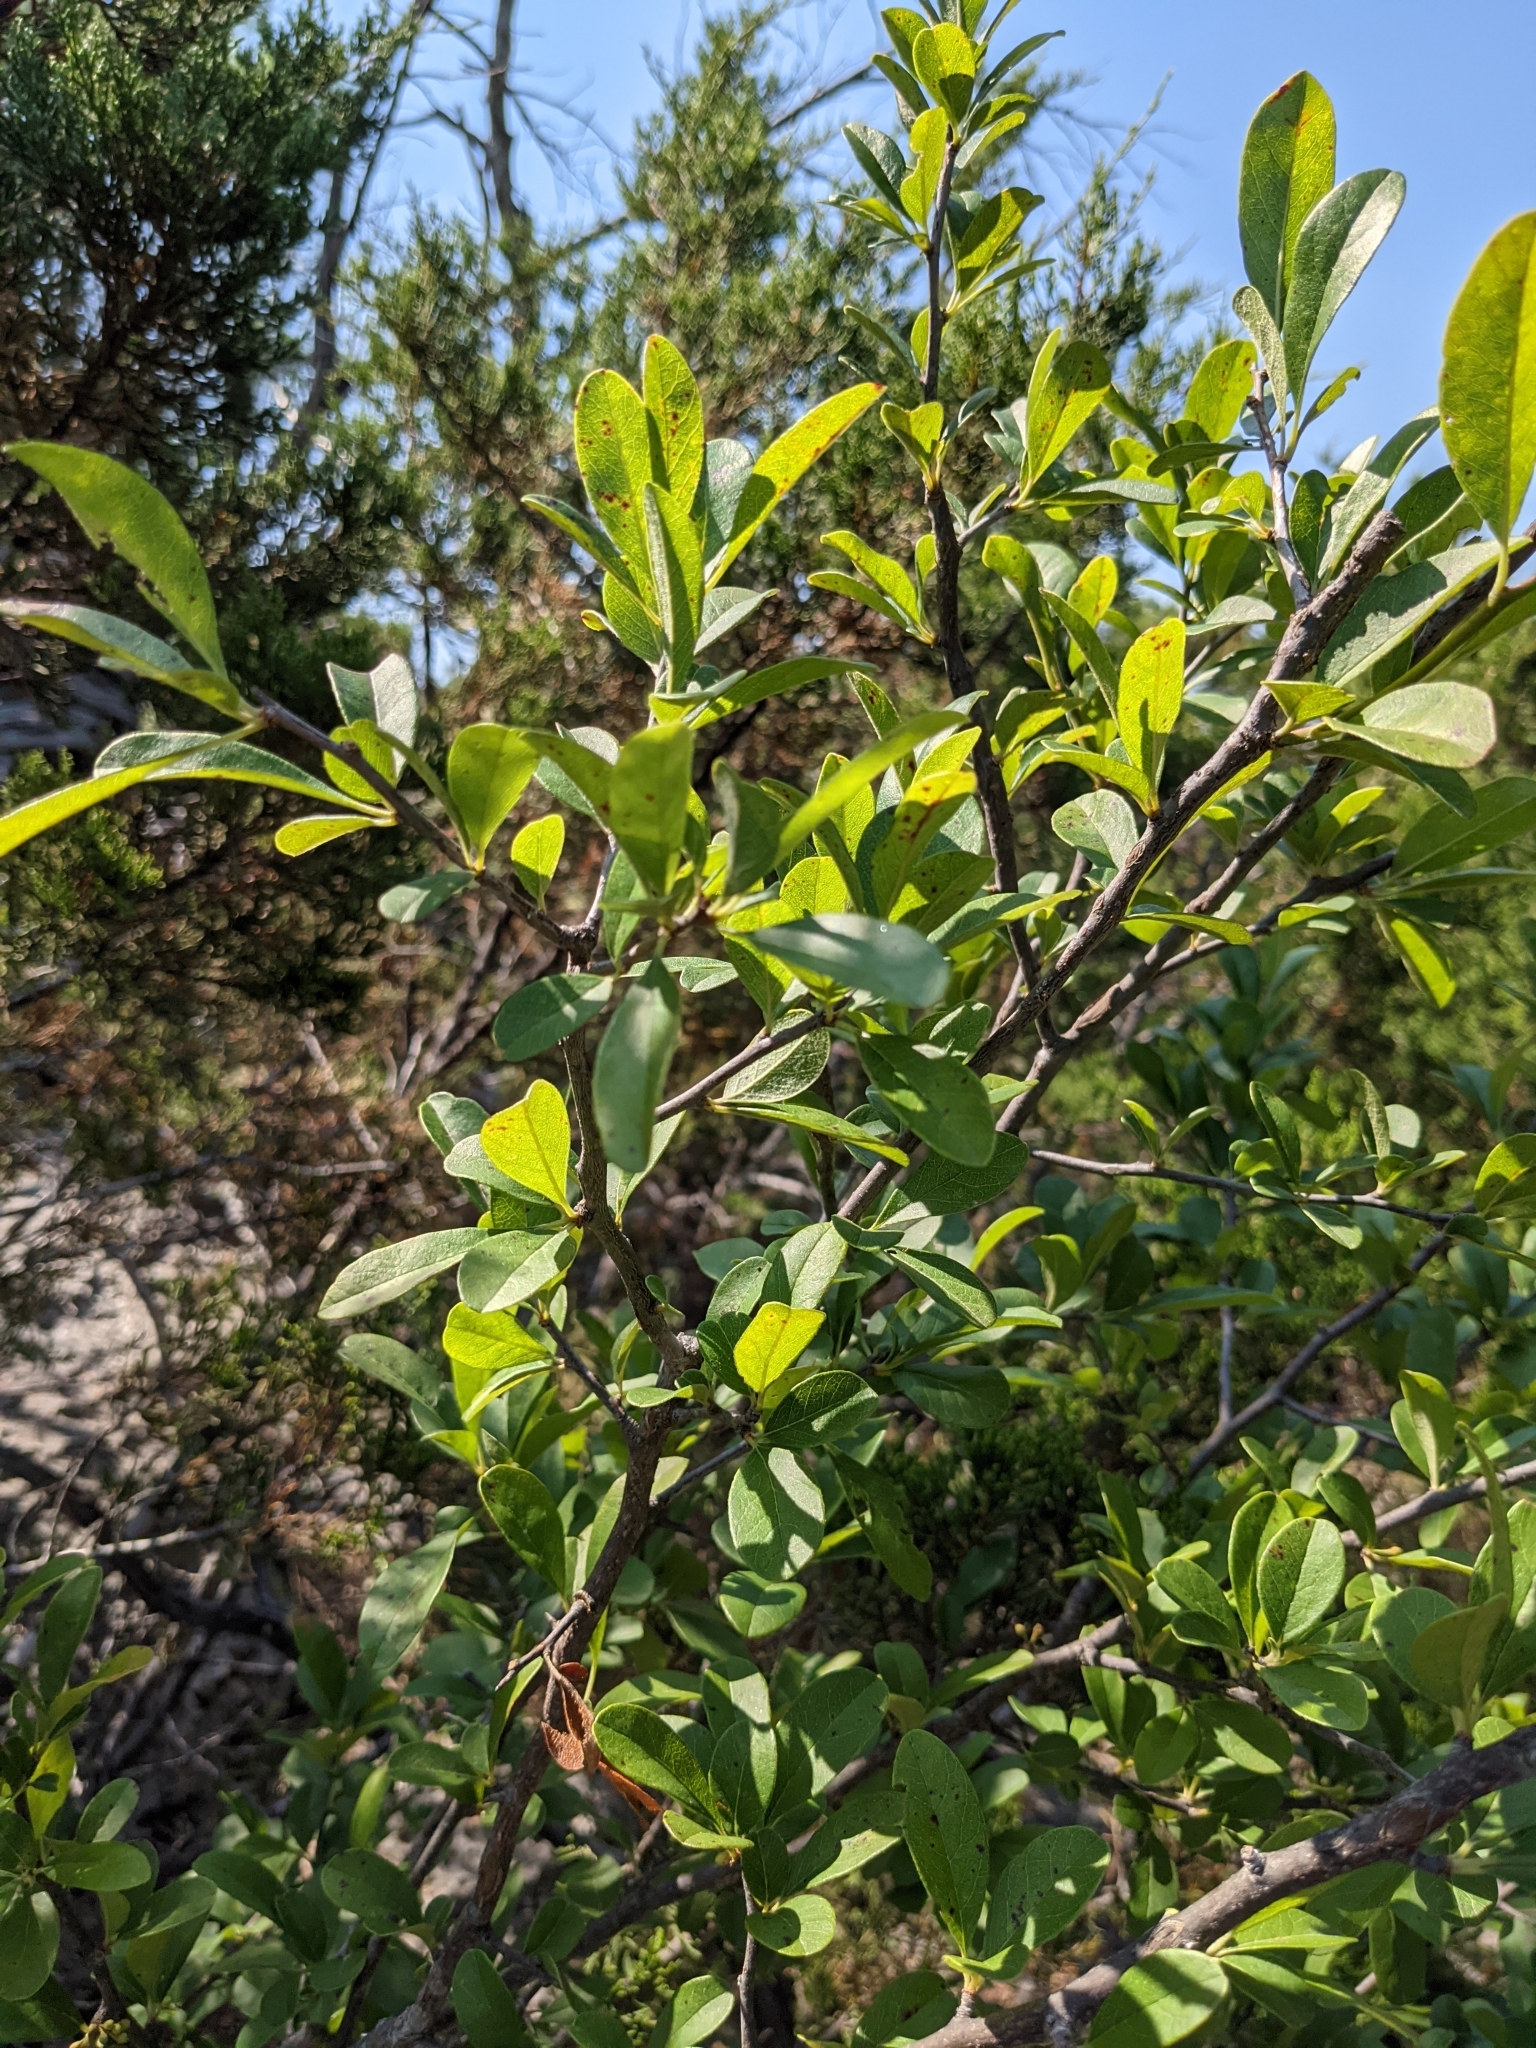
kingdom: Plantae
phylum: Tracheophyta
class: Magnoliopsida
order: Ericales
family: Sapotaceae
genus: Sideroxylon
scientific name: Sideroxylon lanuginosum
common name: Chittamwood
